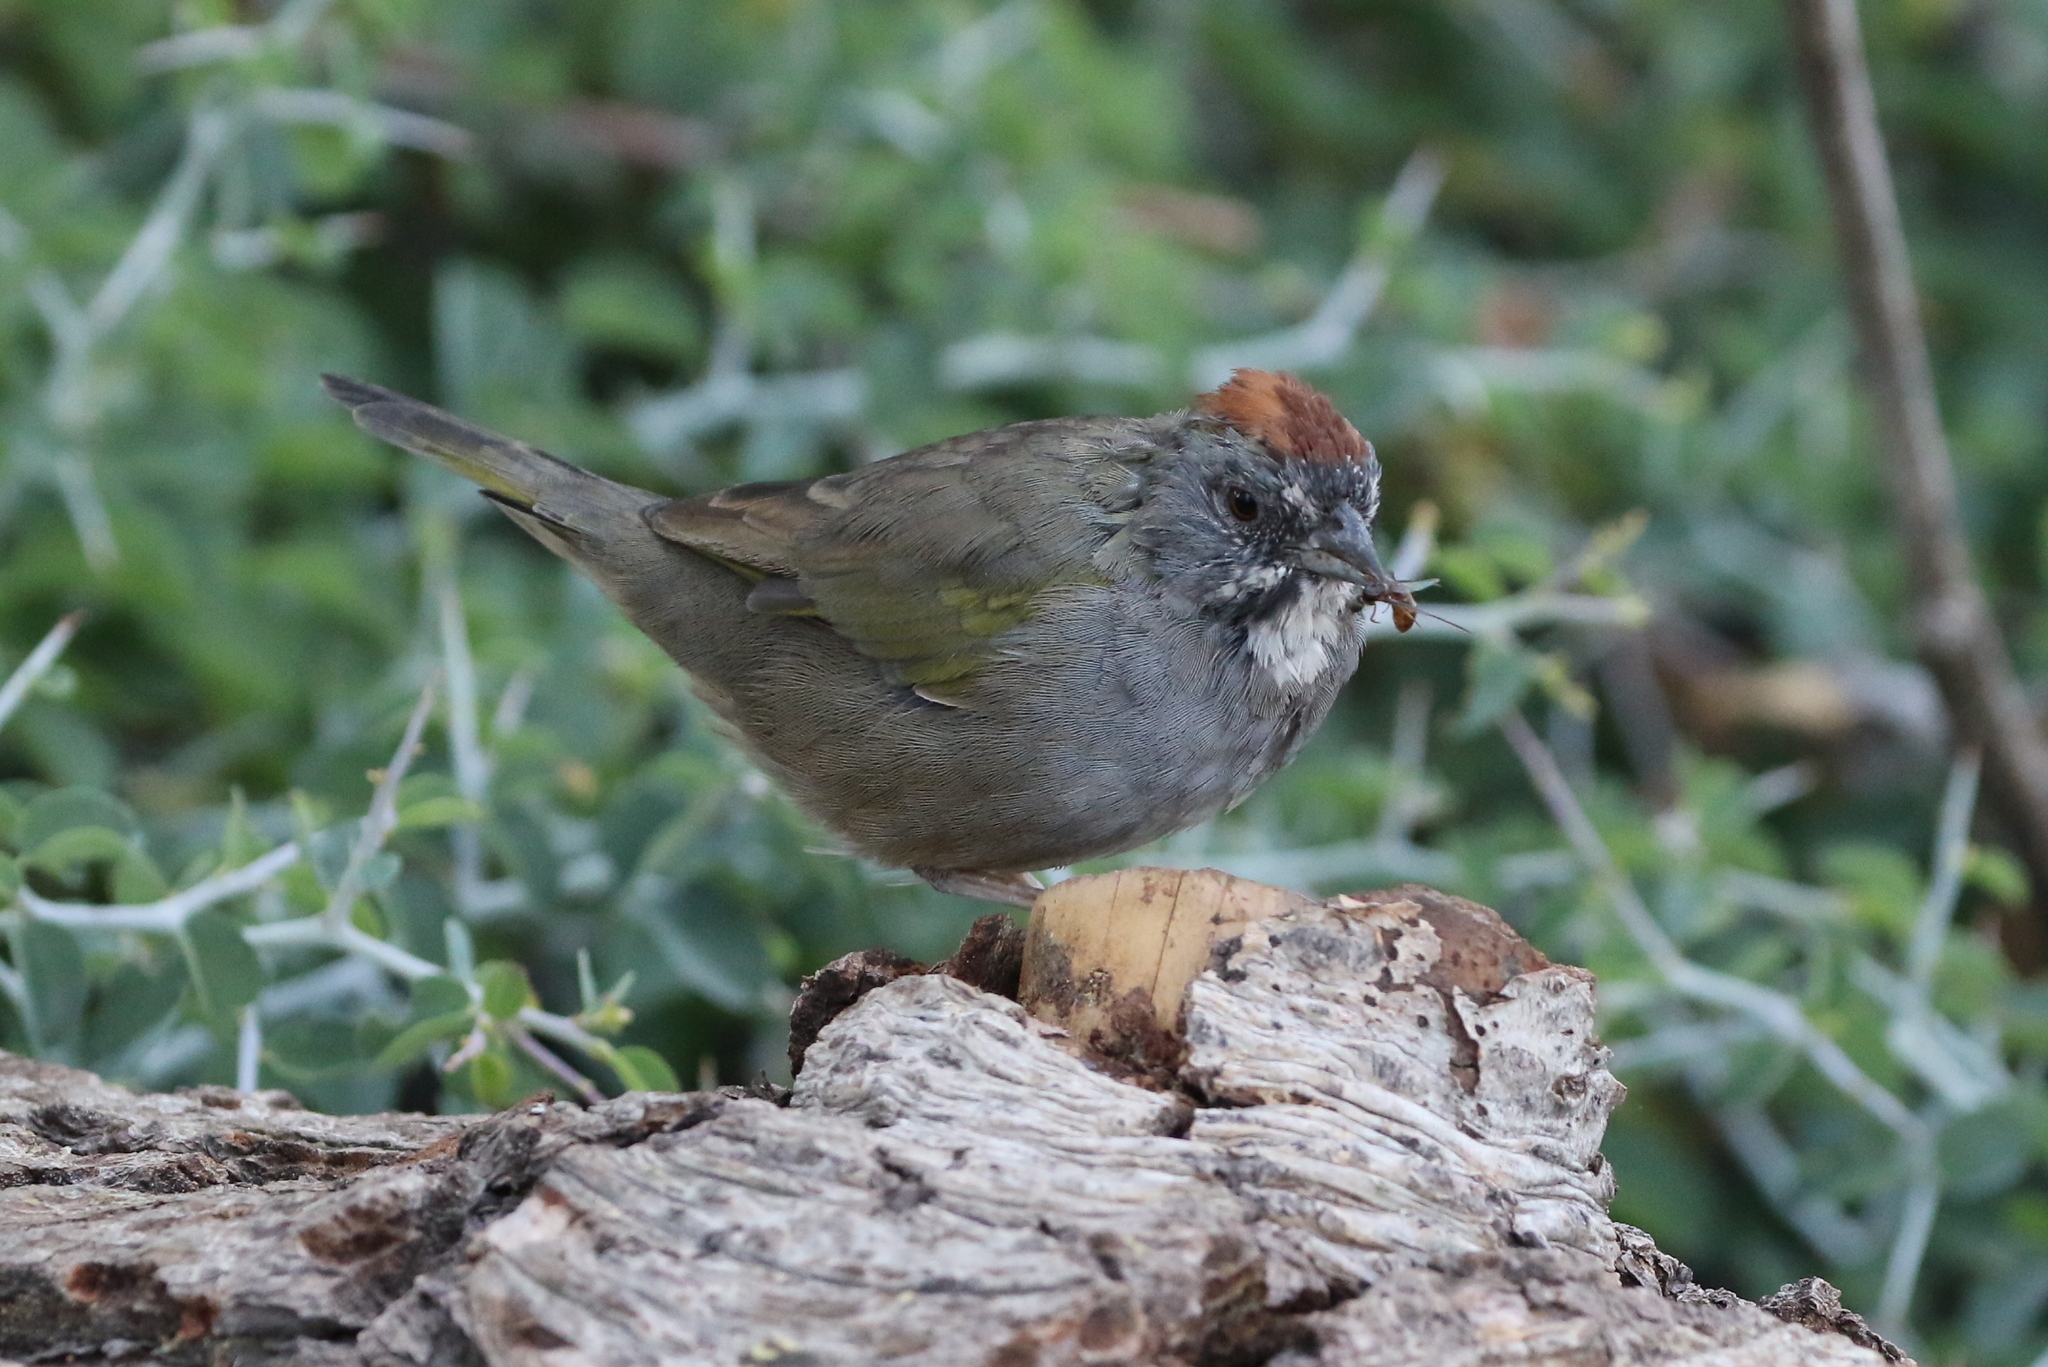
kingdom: Animalia
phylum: Chordata
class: Aves
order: Passeriformes
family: Passerellidae
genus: Pipilo
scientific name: Pipilo chlorurus
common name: Green-tailed towhee
